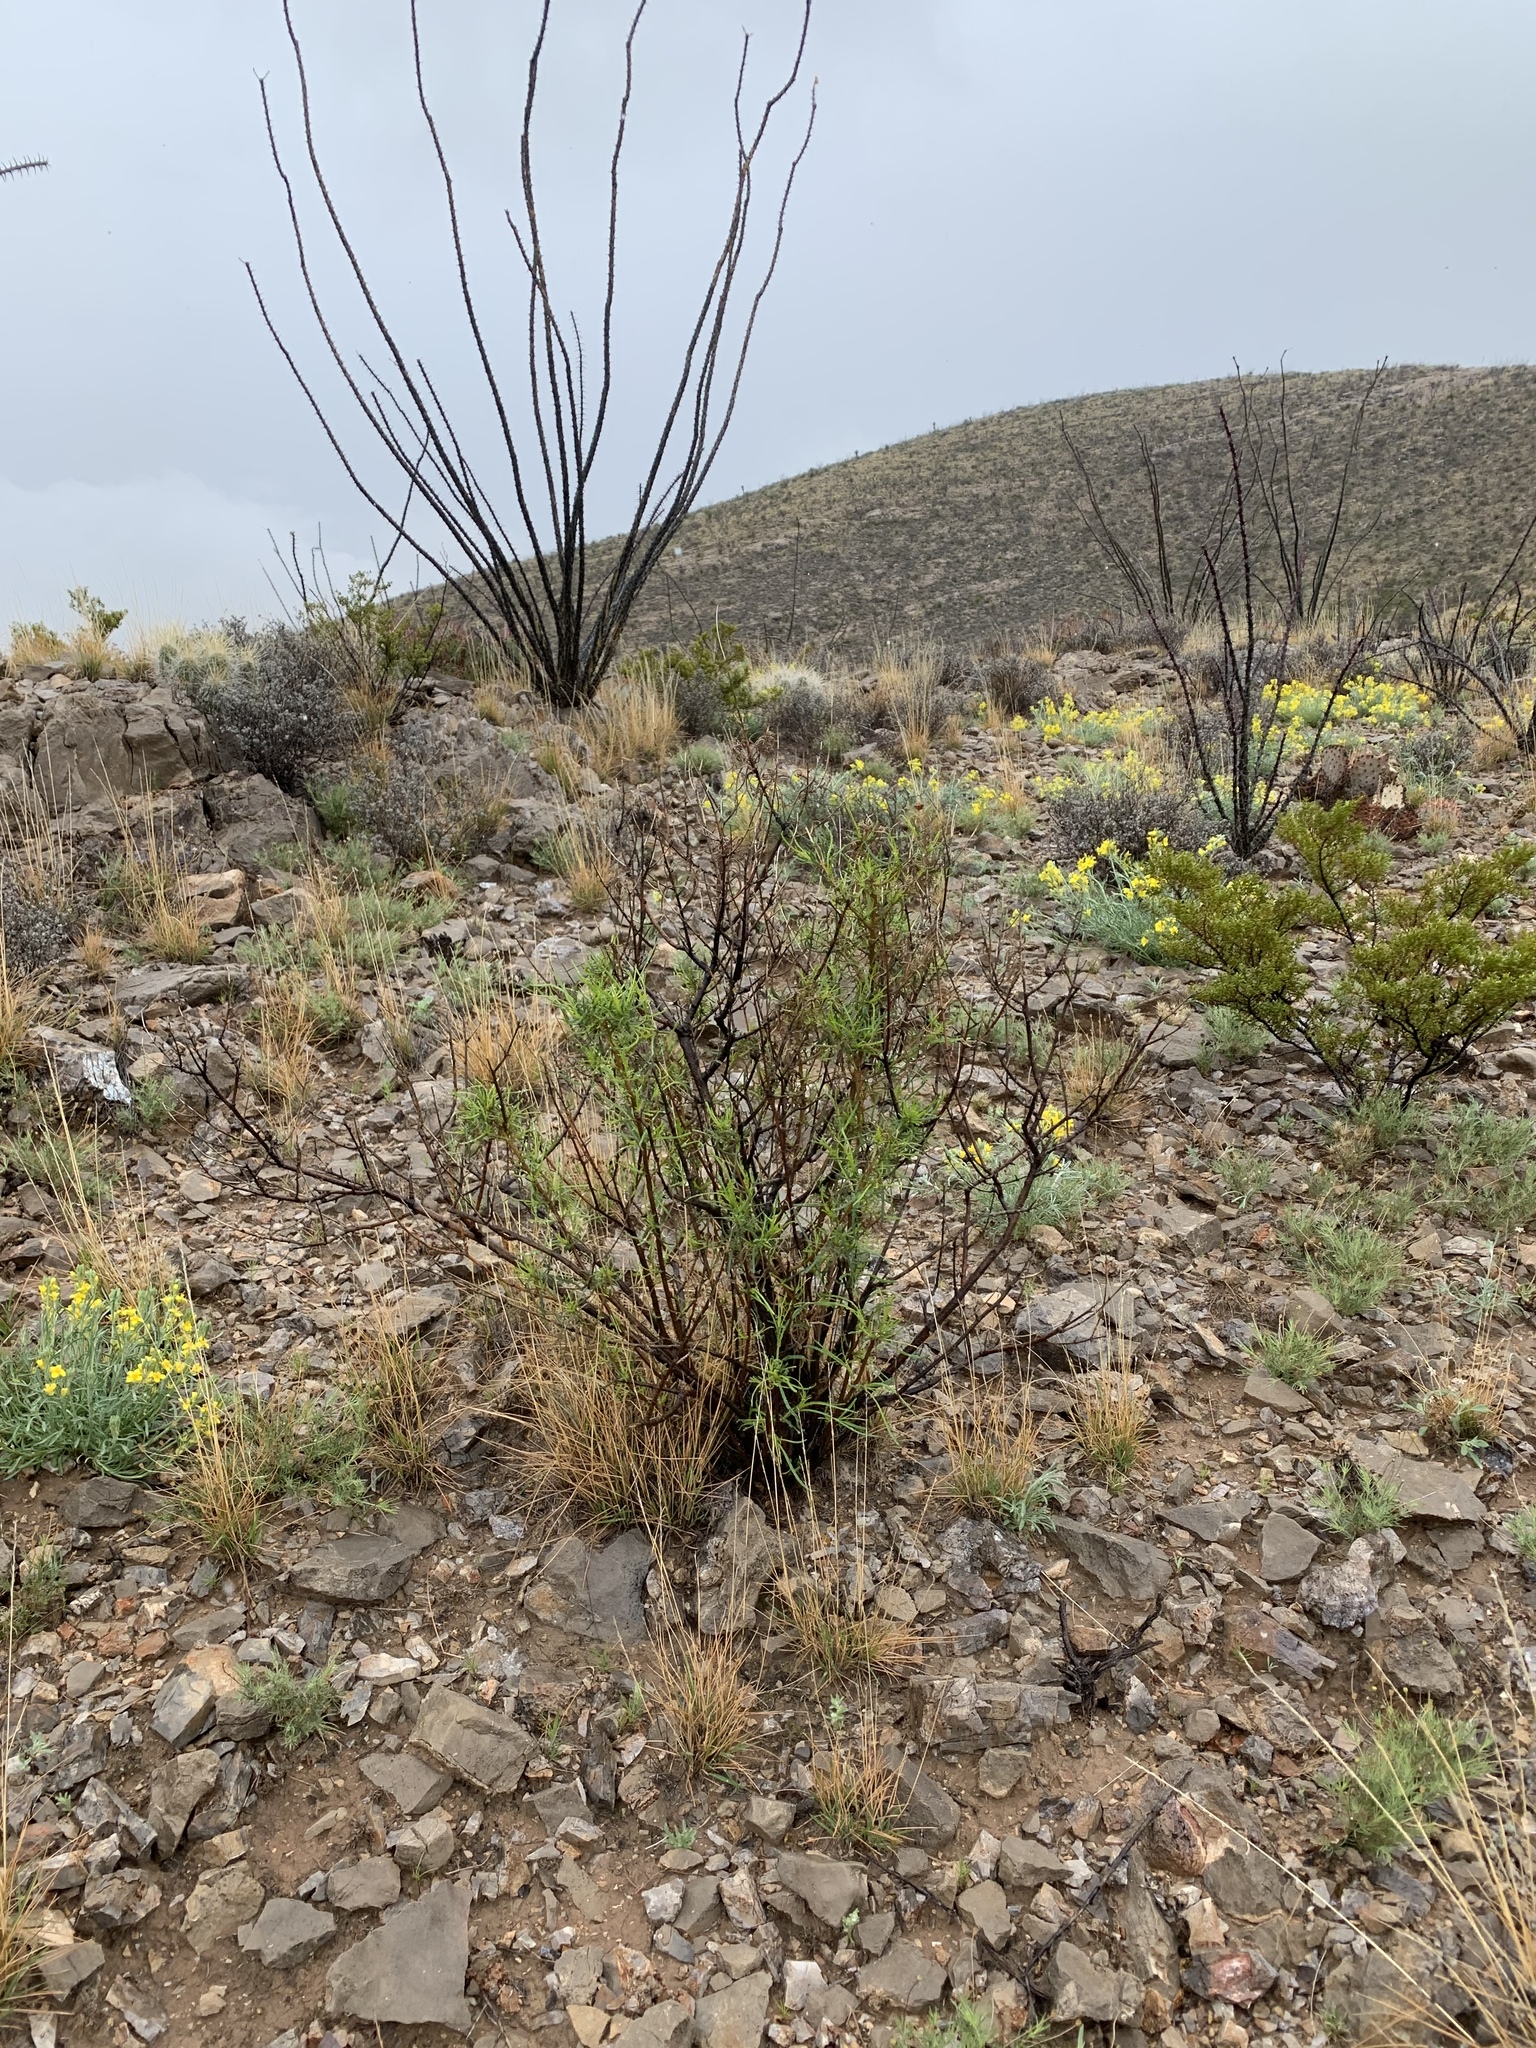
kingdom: Plantae
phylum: Tracheophyta
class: Magnoliopsida
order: Asterales
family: Asteraceae
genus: Sidneya
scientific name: Sidneya tenuifolia
